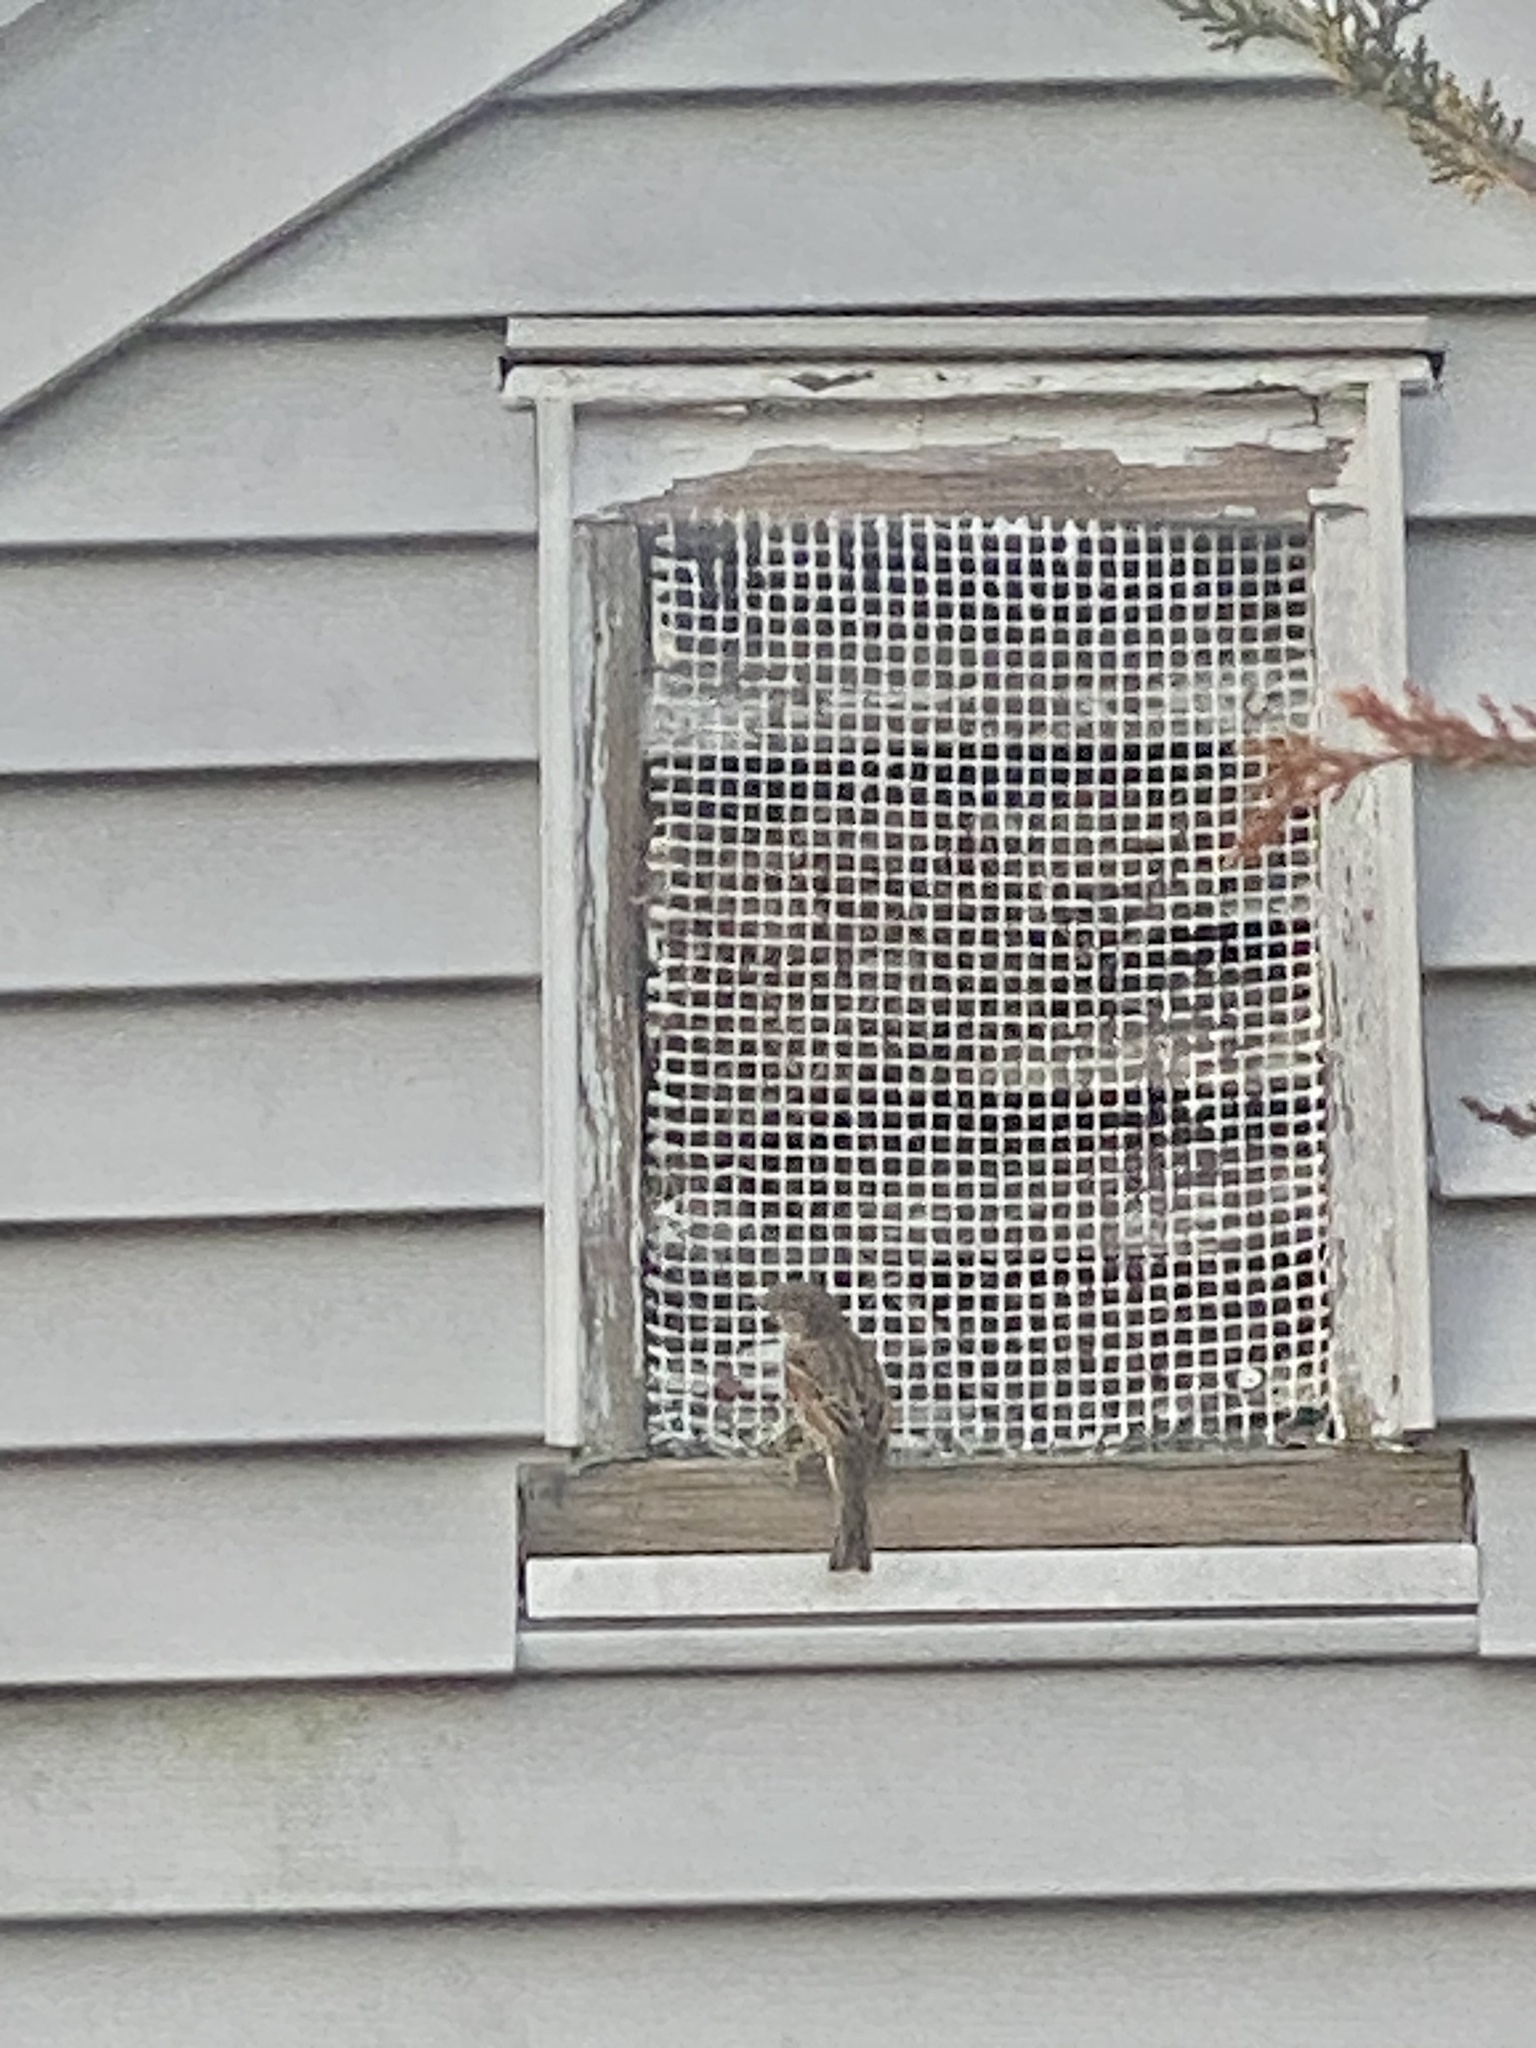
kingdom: Animalia
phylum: Chordata
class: Aves
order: Passeriformes
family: Passeridae
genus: Passer
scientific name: Passer domesticus
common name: House sparrow
